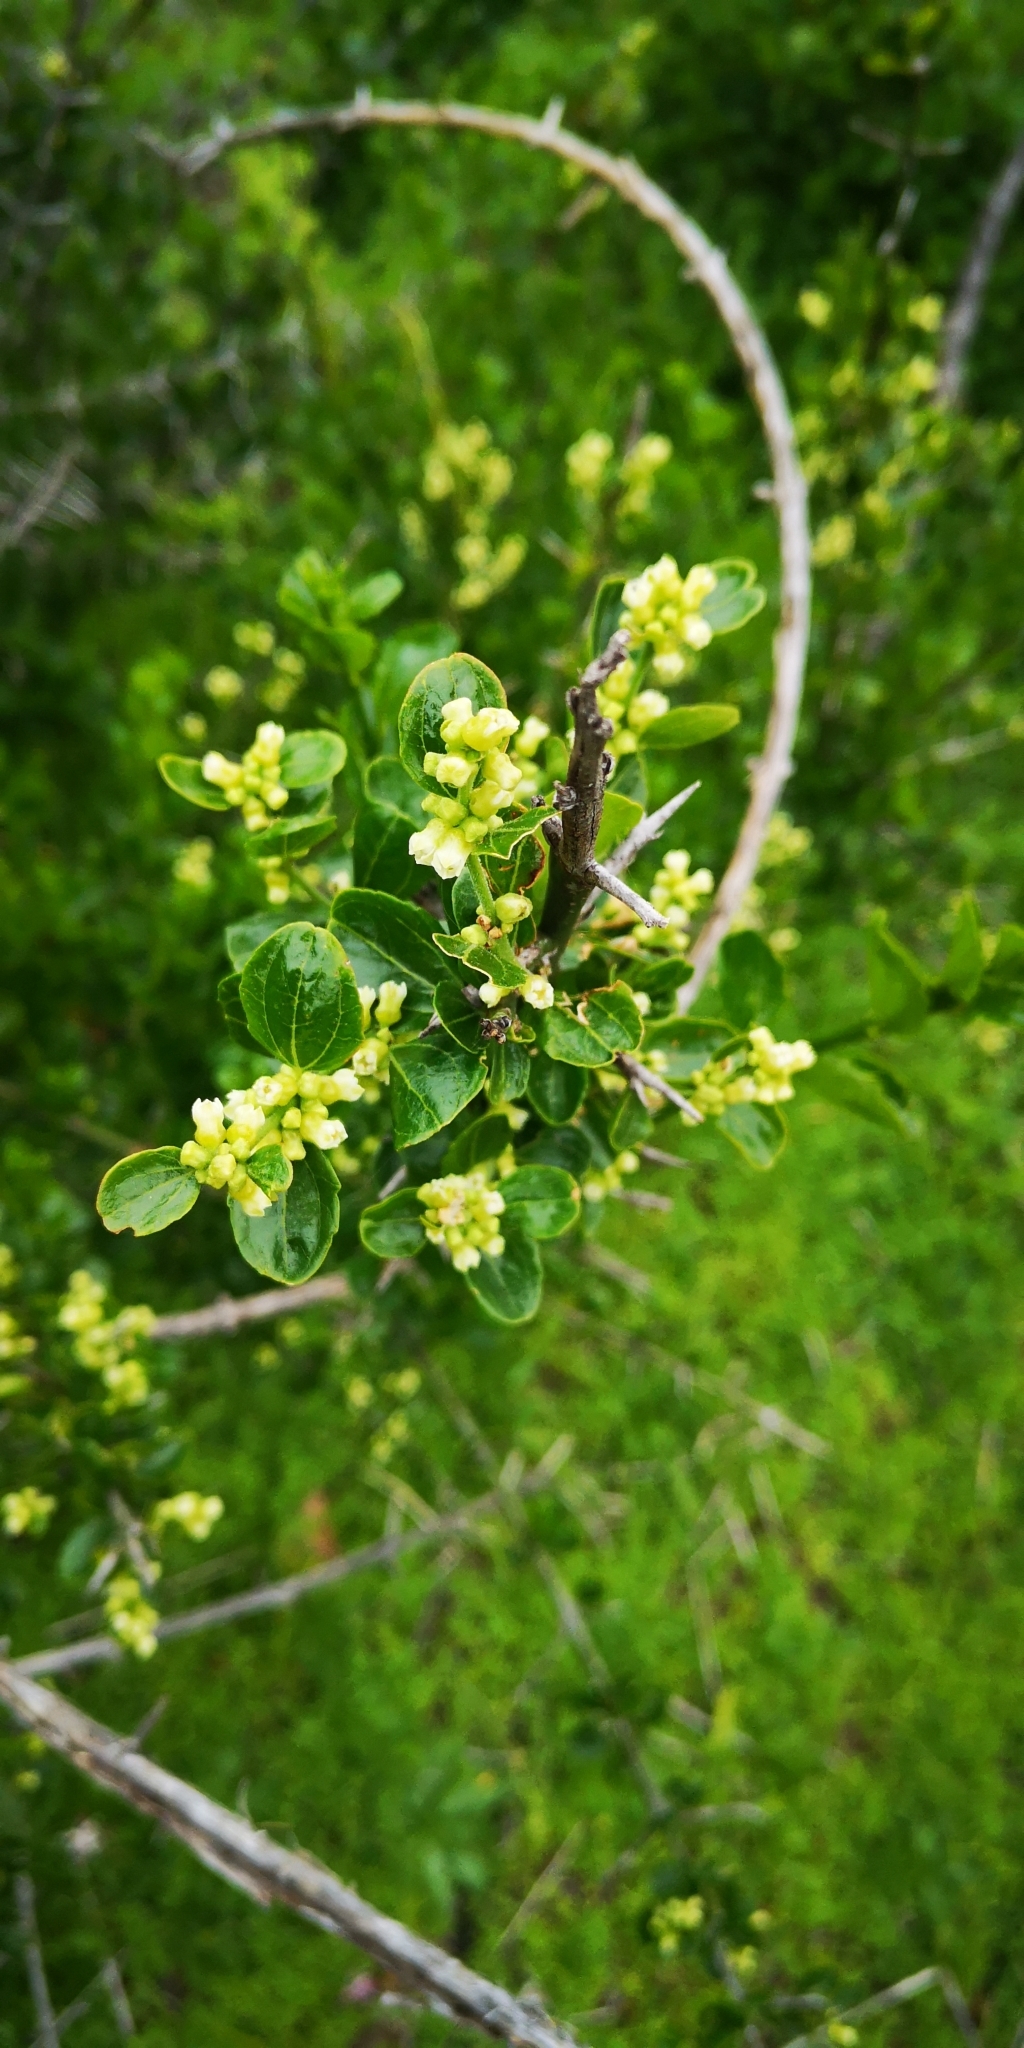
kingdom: Plantae
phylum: Tracheophyta
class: Magnoliopsida
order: Rosales
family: Rhamnaceae
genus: Retanilla
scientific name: Retanilla trinervia
